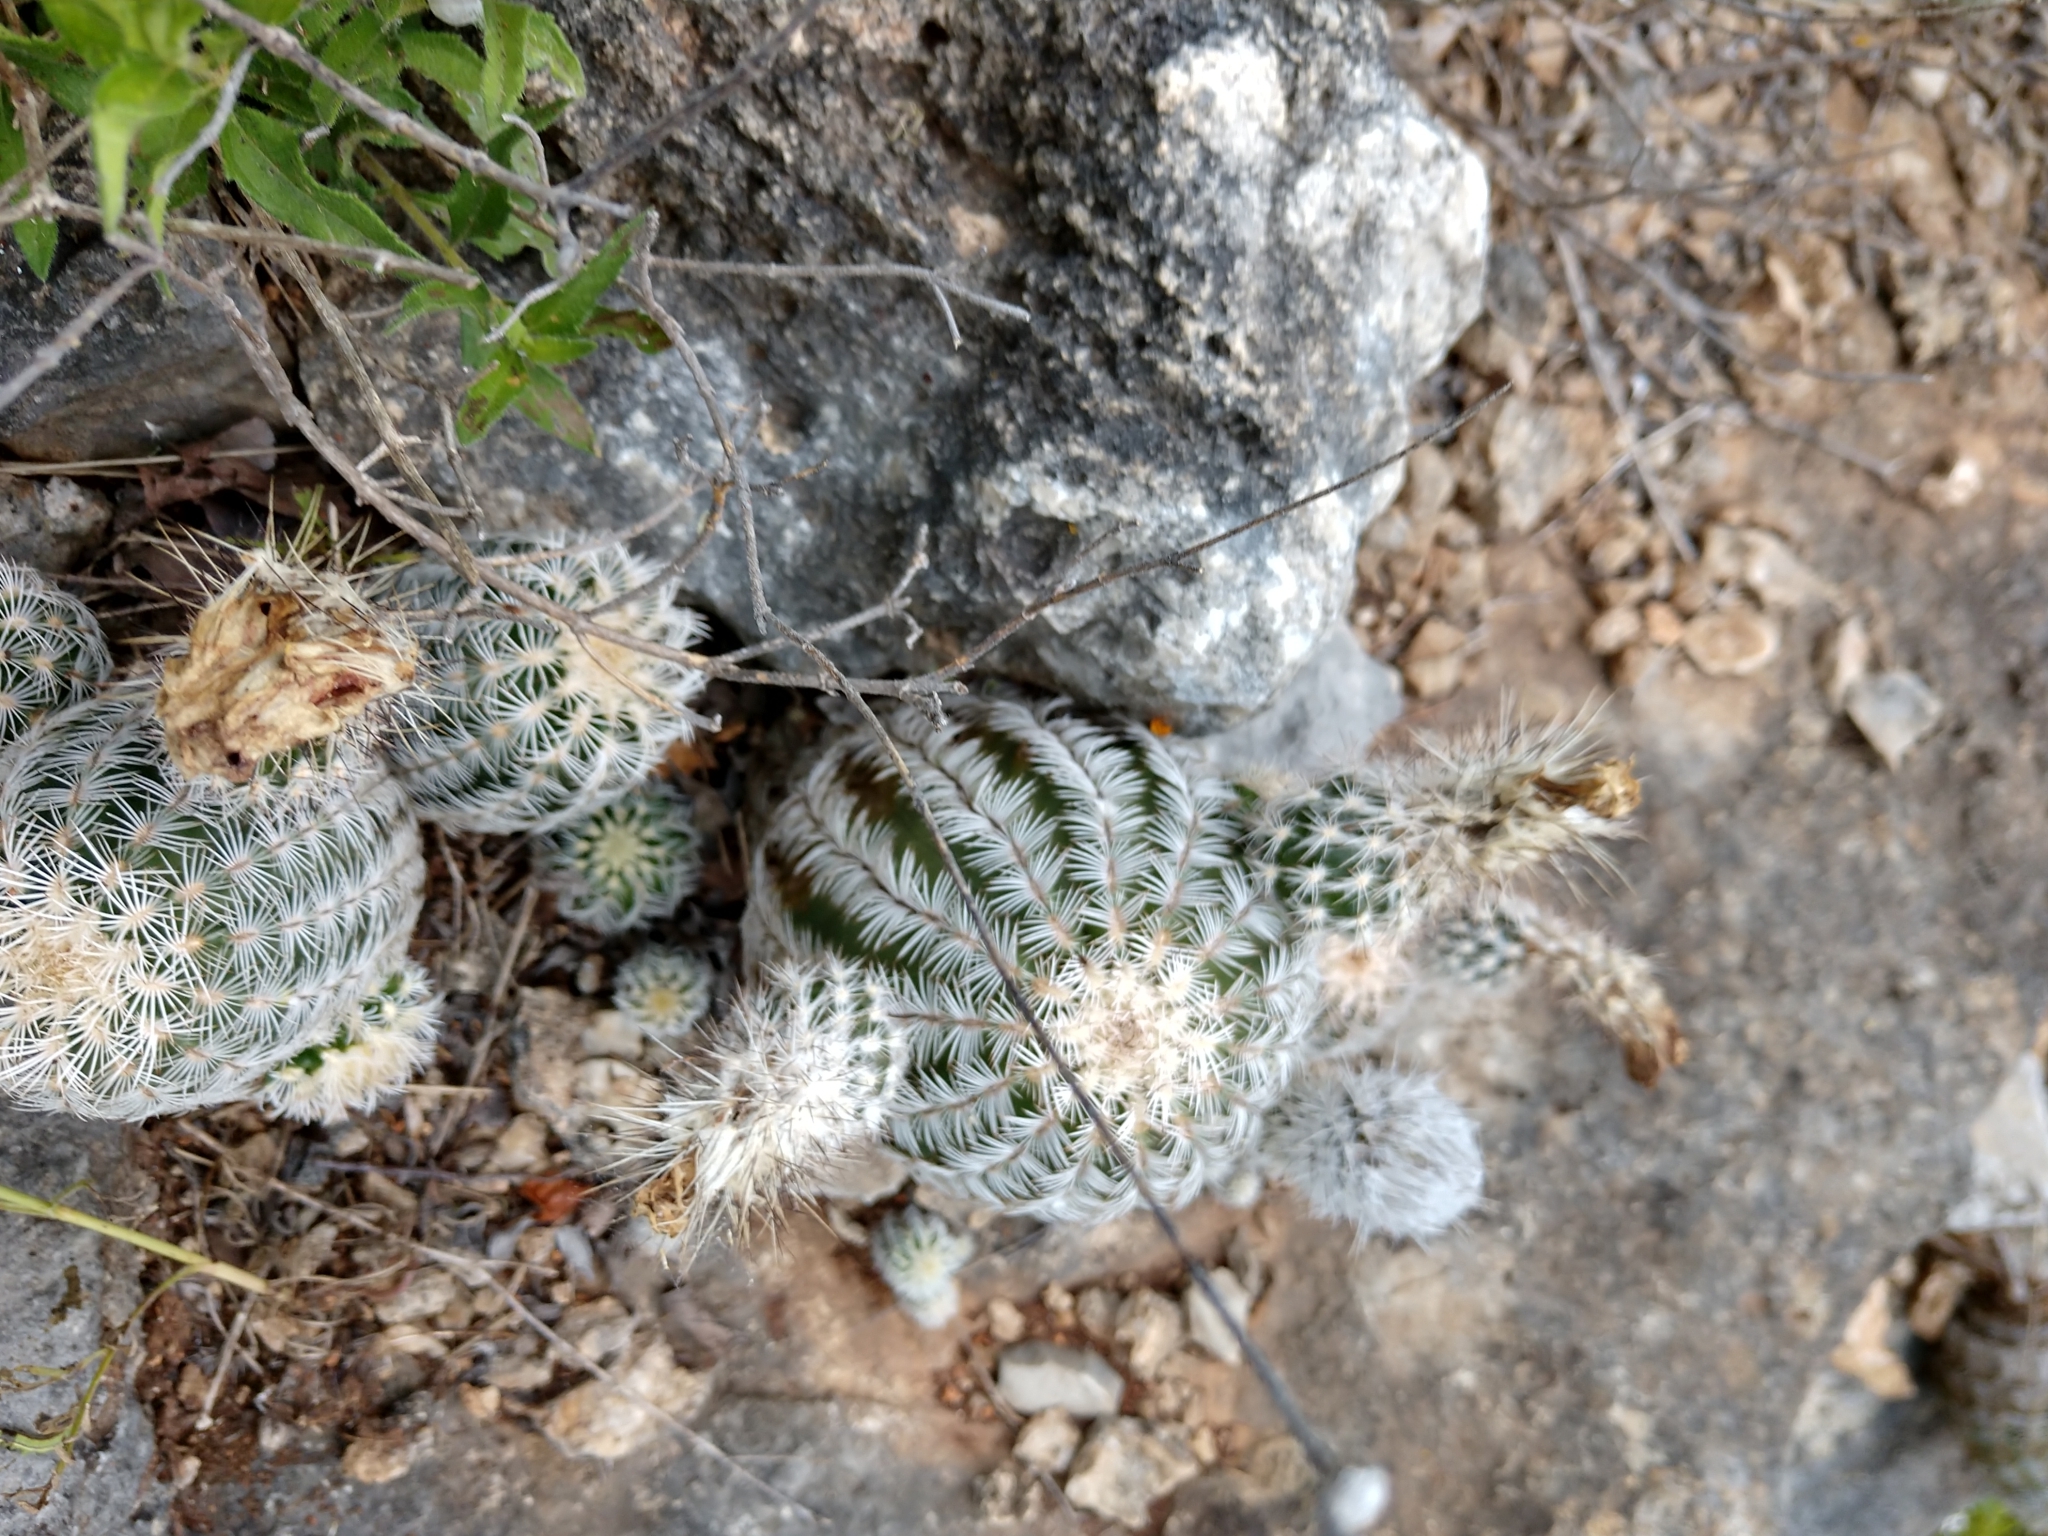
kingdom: Plantae
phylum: Tracheophyta
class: Magnoliopsida
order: Caryophyllales
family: Cactaceae
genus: Echinocereus
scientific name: Echinocereus reichenbachii
